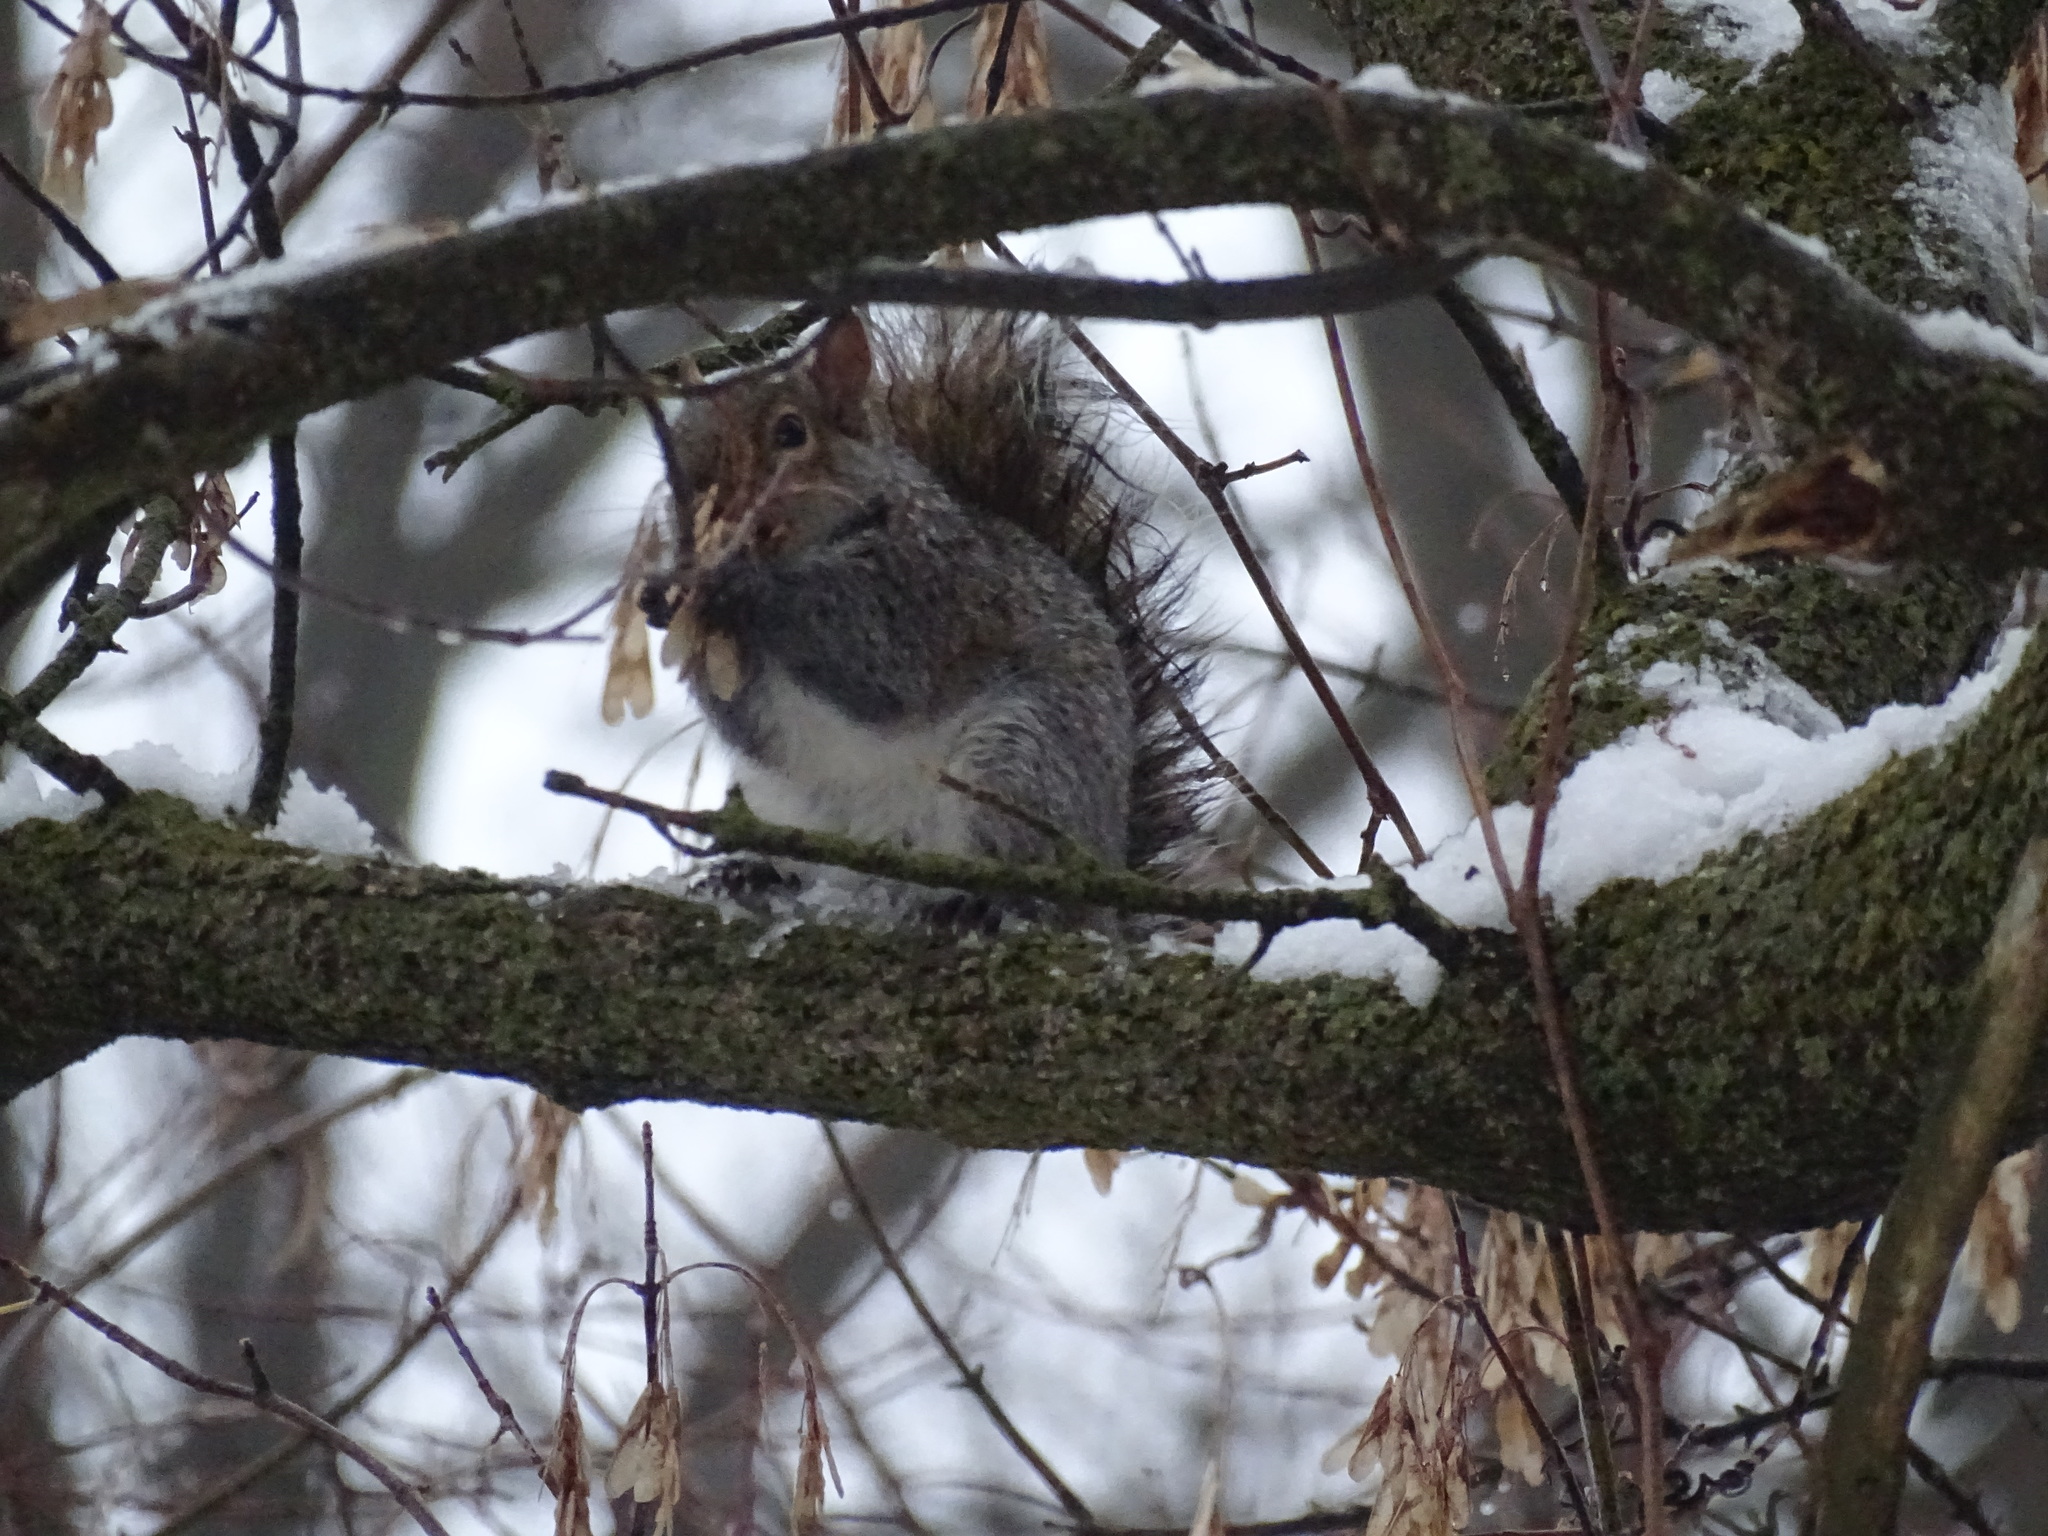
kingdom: Animalia
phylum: Chordata
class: Mammalia
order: Rodentia
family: Sciuridae
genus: Sciurus
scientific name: Sciurus carolinensis
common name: Eastern gray squirrel
